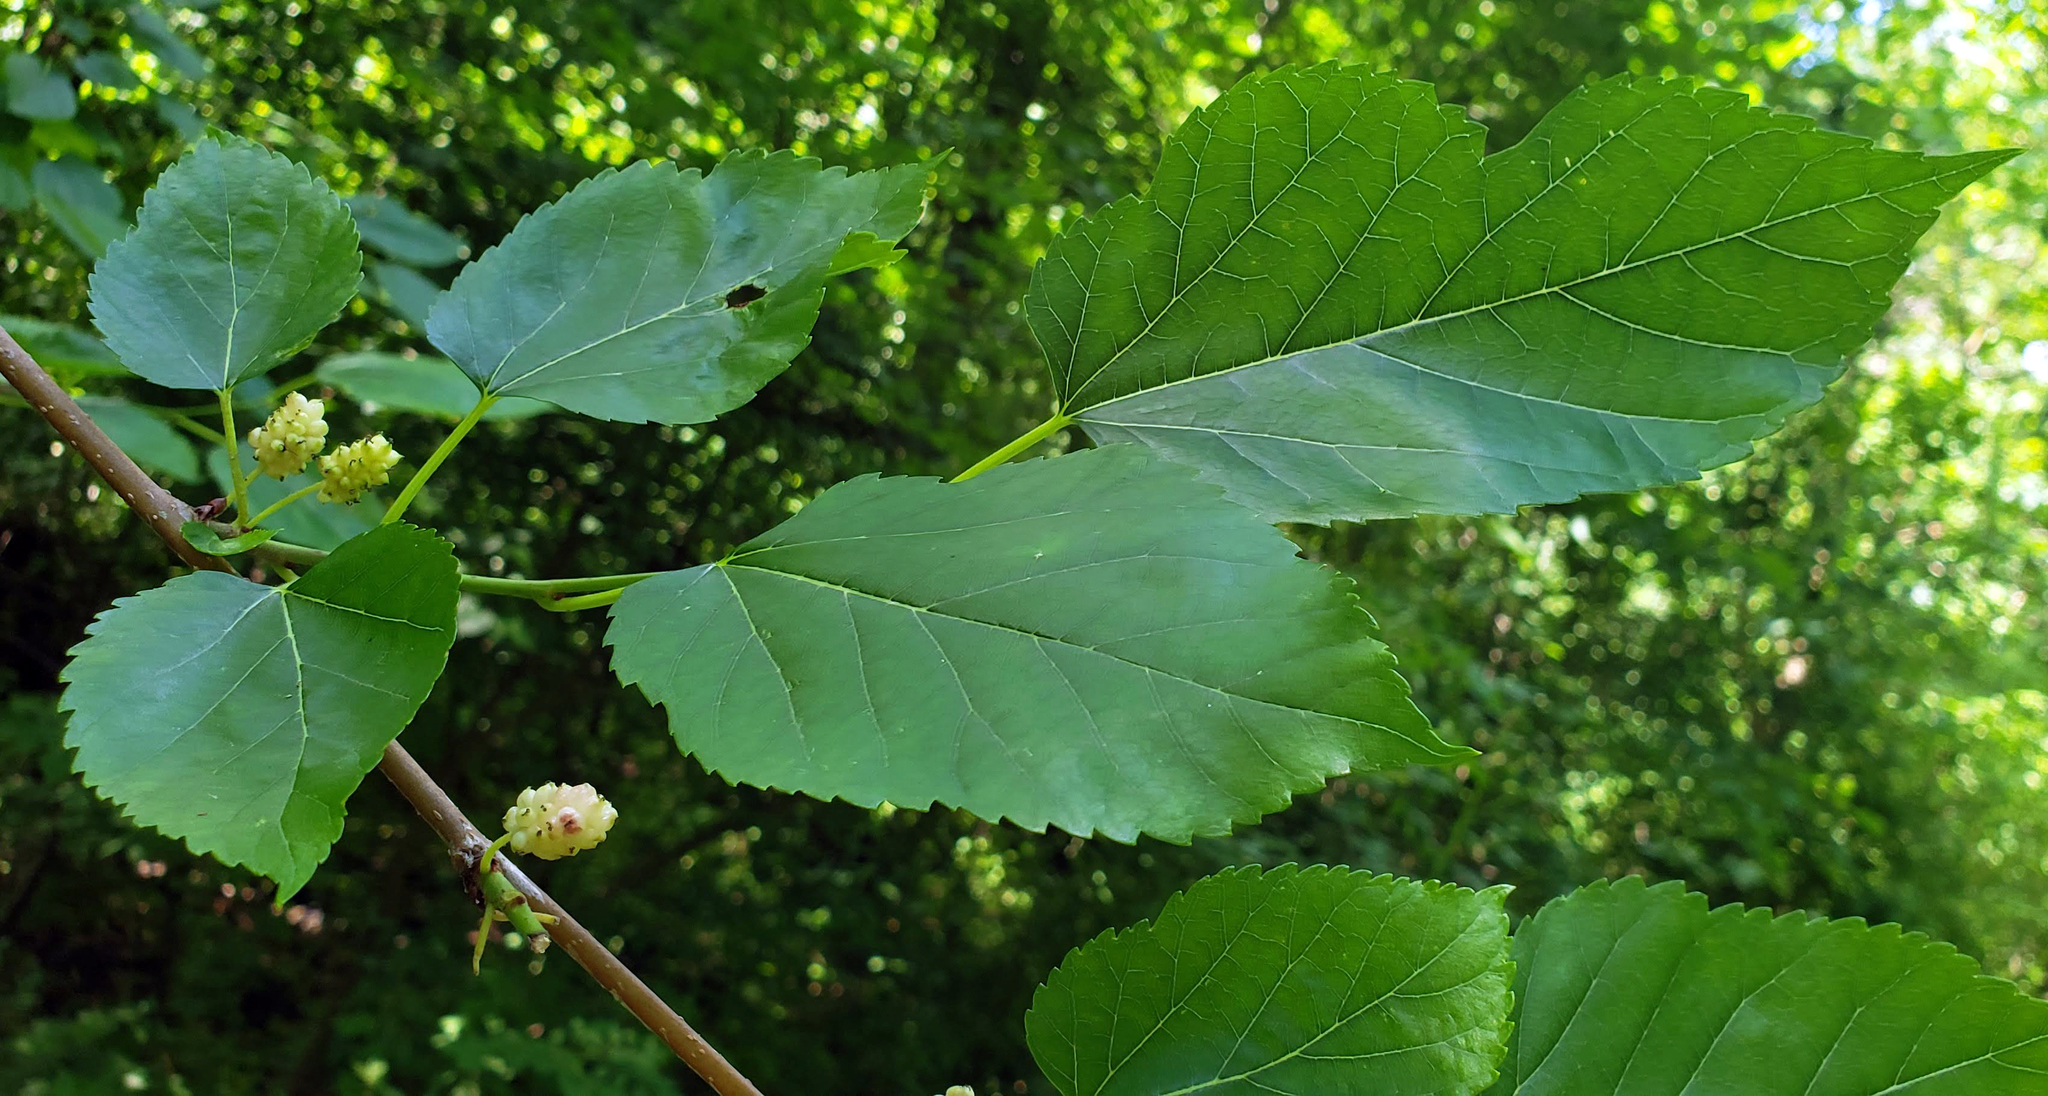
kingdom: Plantae
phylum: Tracheophyta
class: Magnoliopsida
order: Rosales
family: Moraceae
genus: Morus
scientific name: Morus alba
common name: White mulberry
